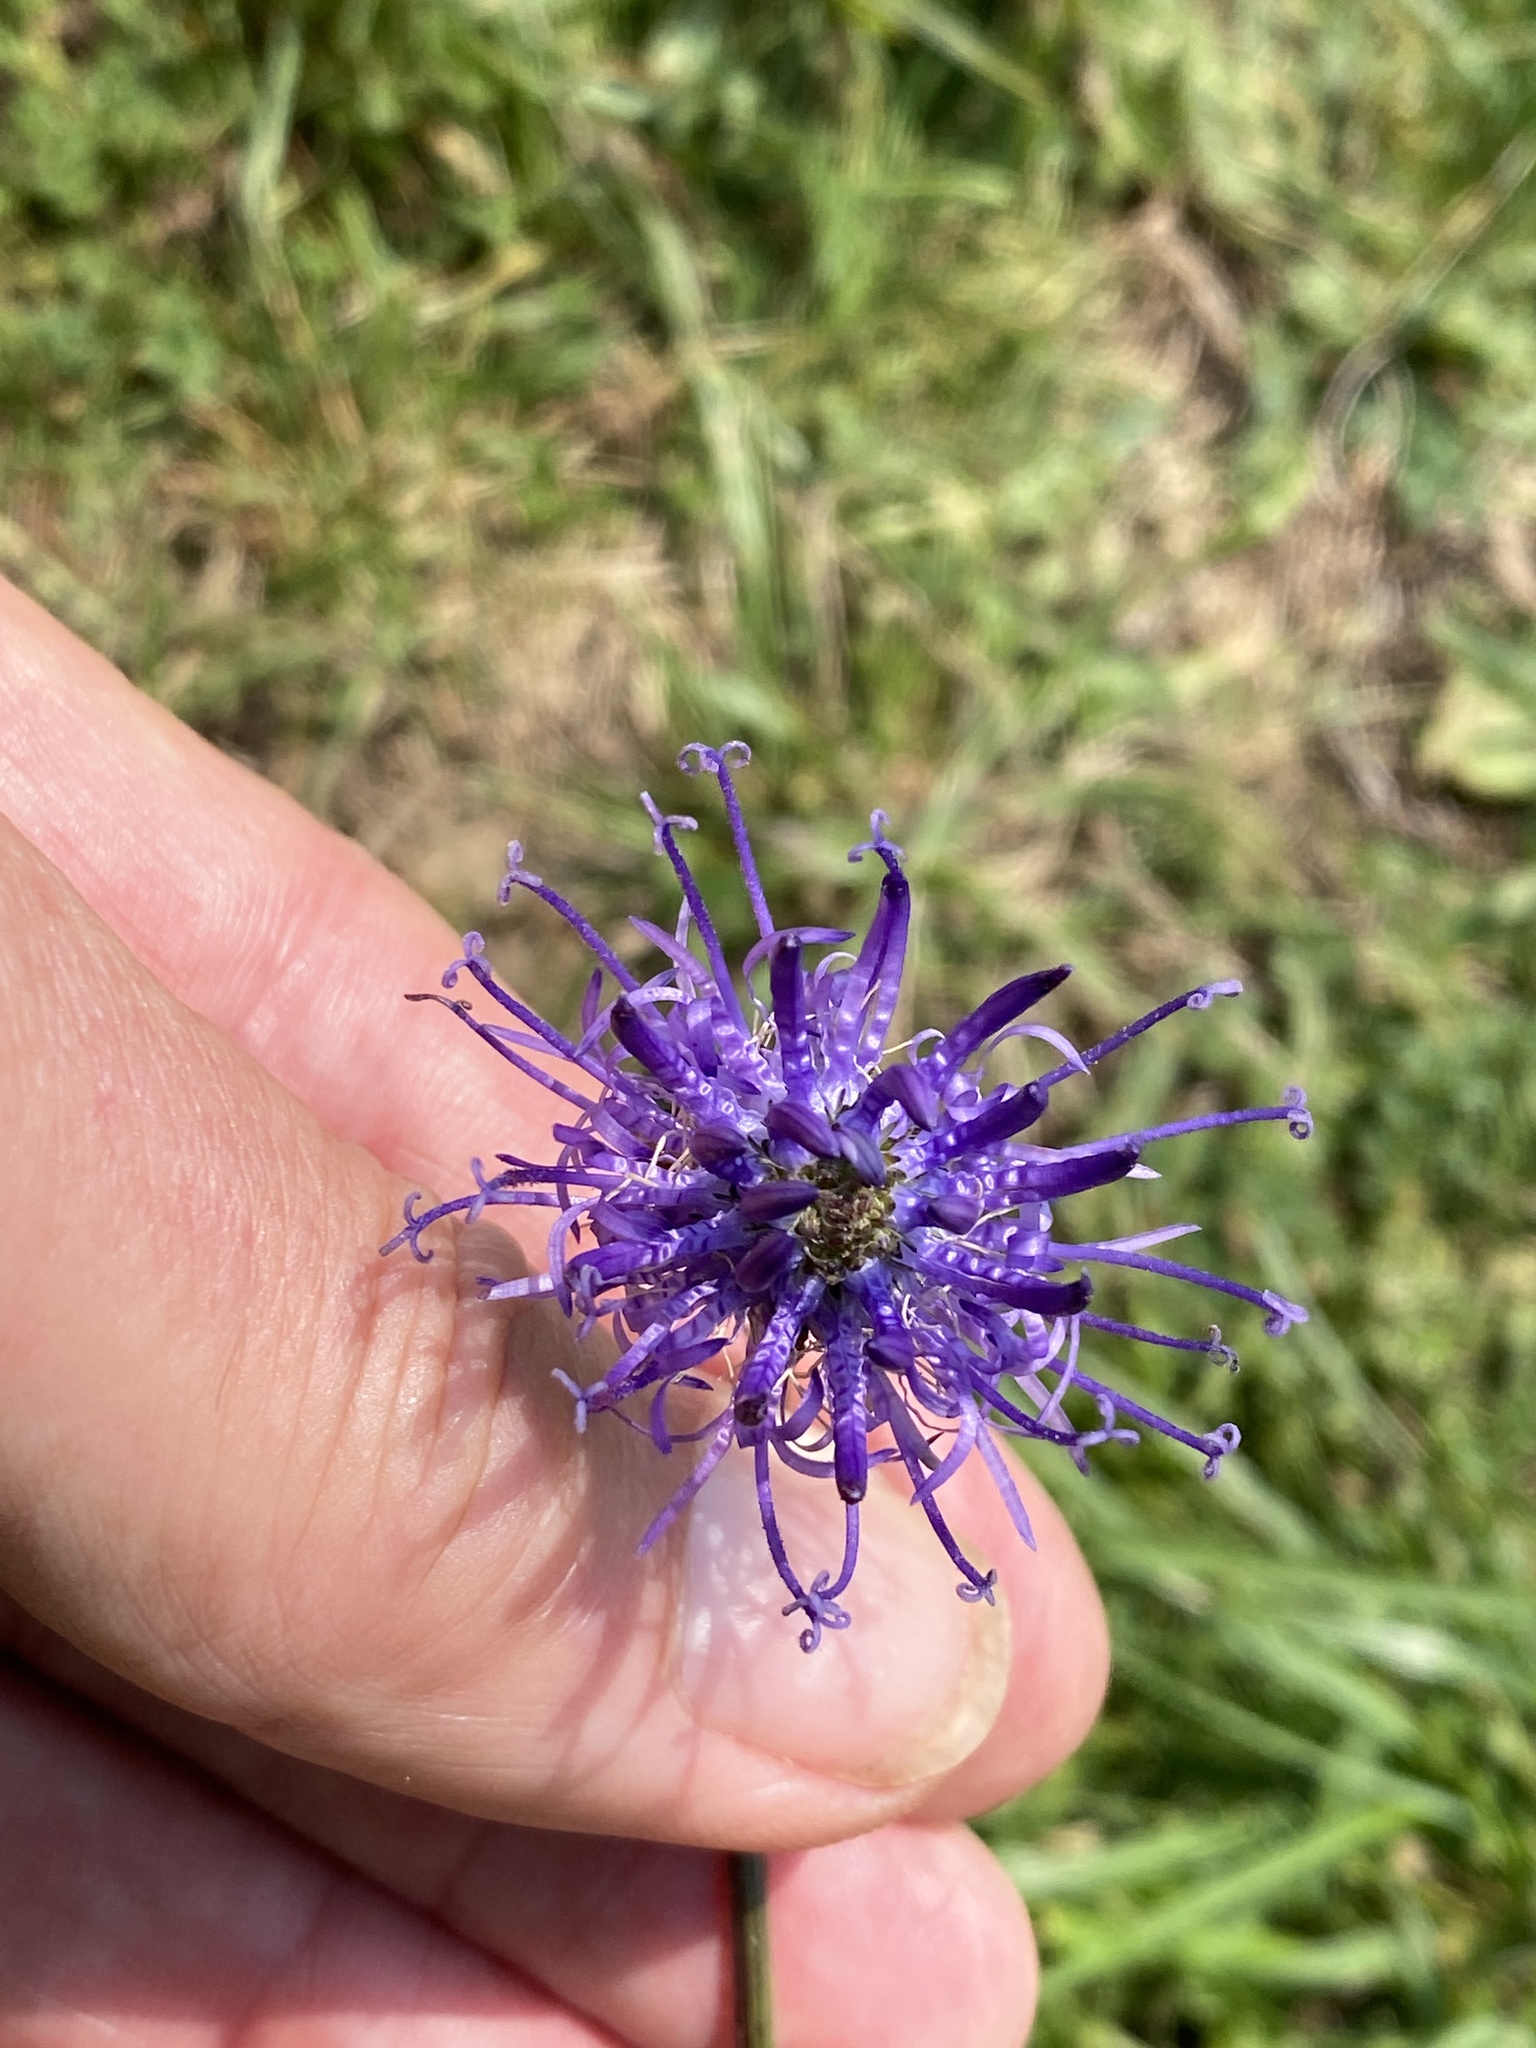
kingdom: Plantae
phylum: Tracheophyta
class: Magnoliopsida
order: Asterales
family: Campanulaceae
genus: Phyteuma
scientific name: Phyteuma orbiculare
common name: Round-headed rampion
